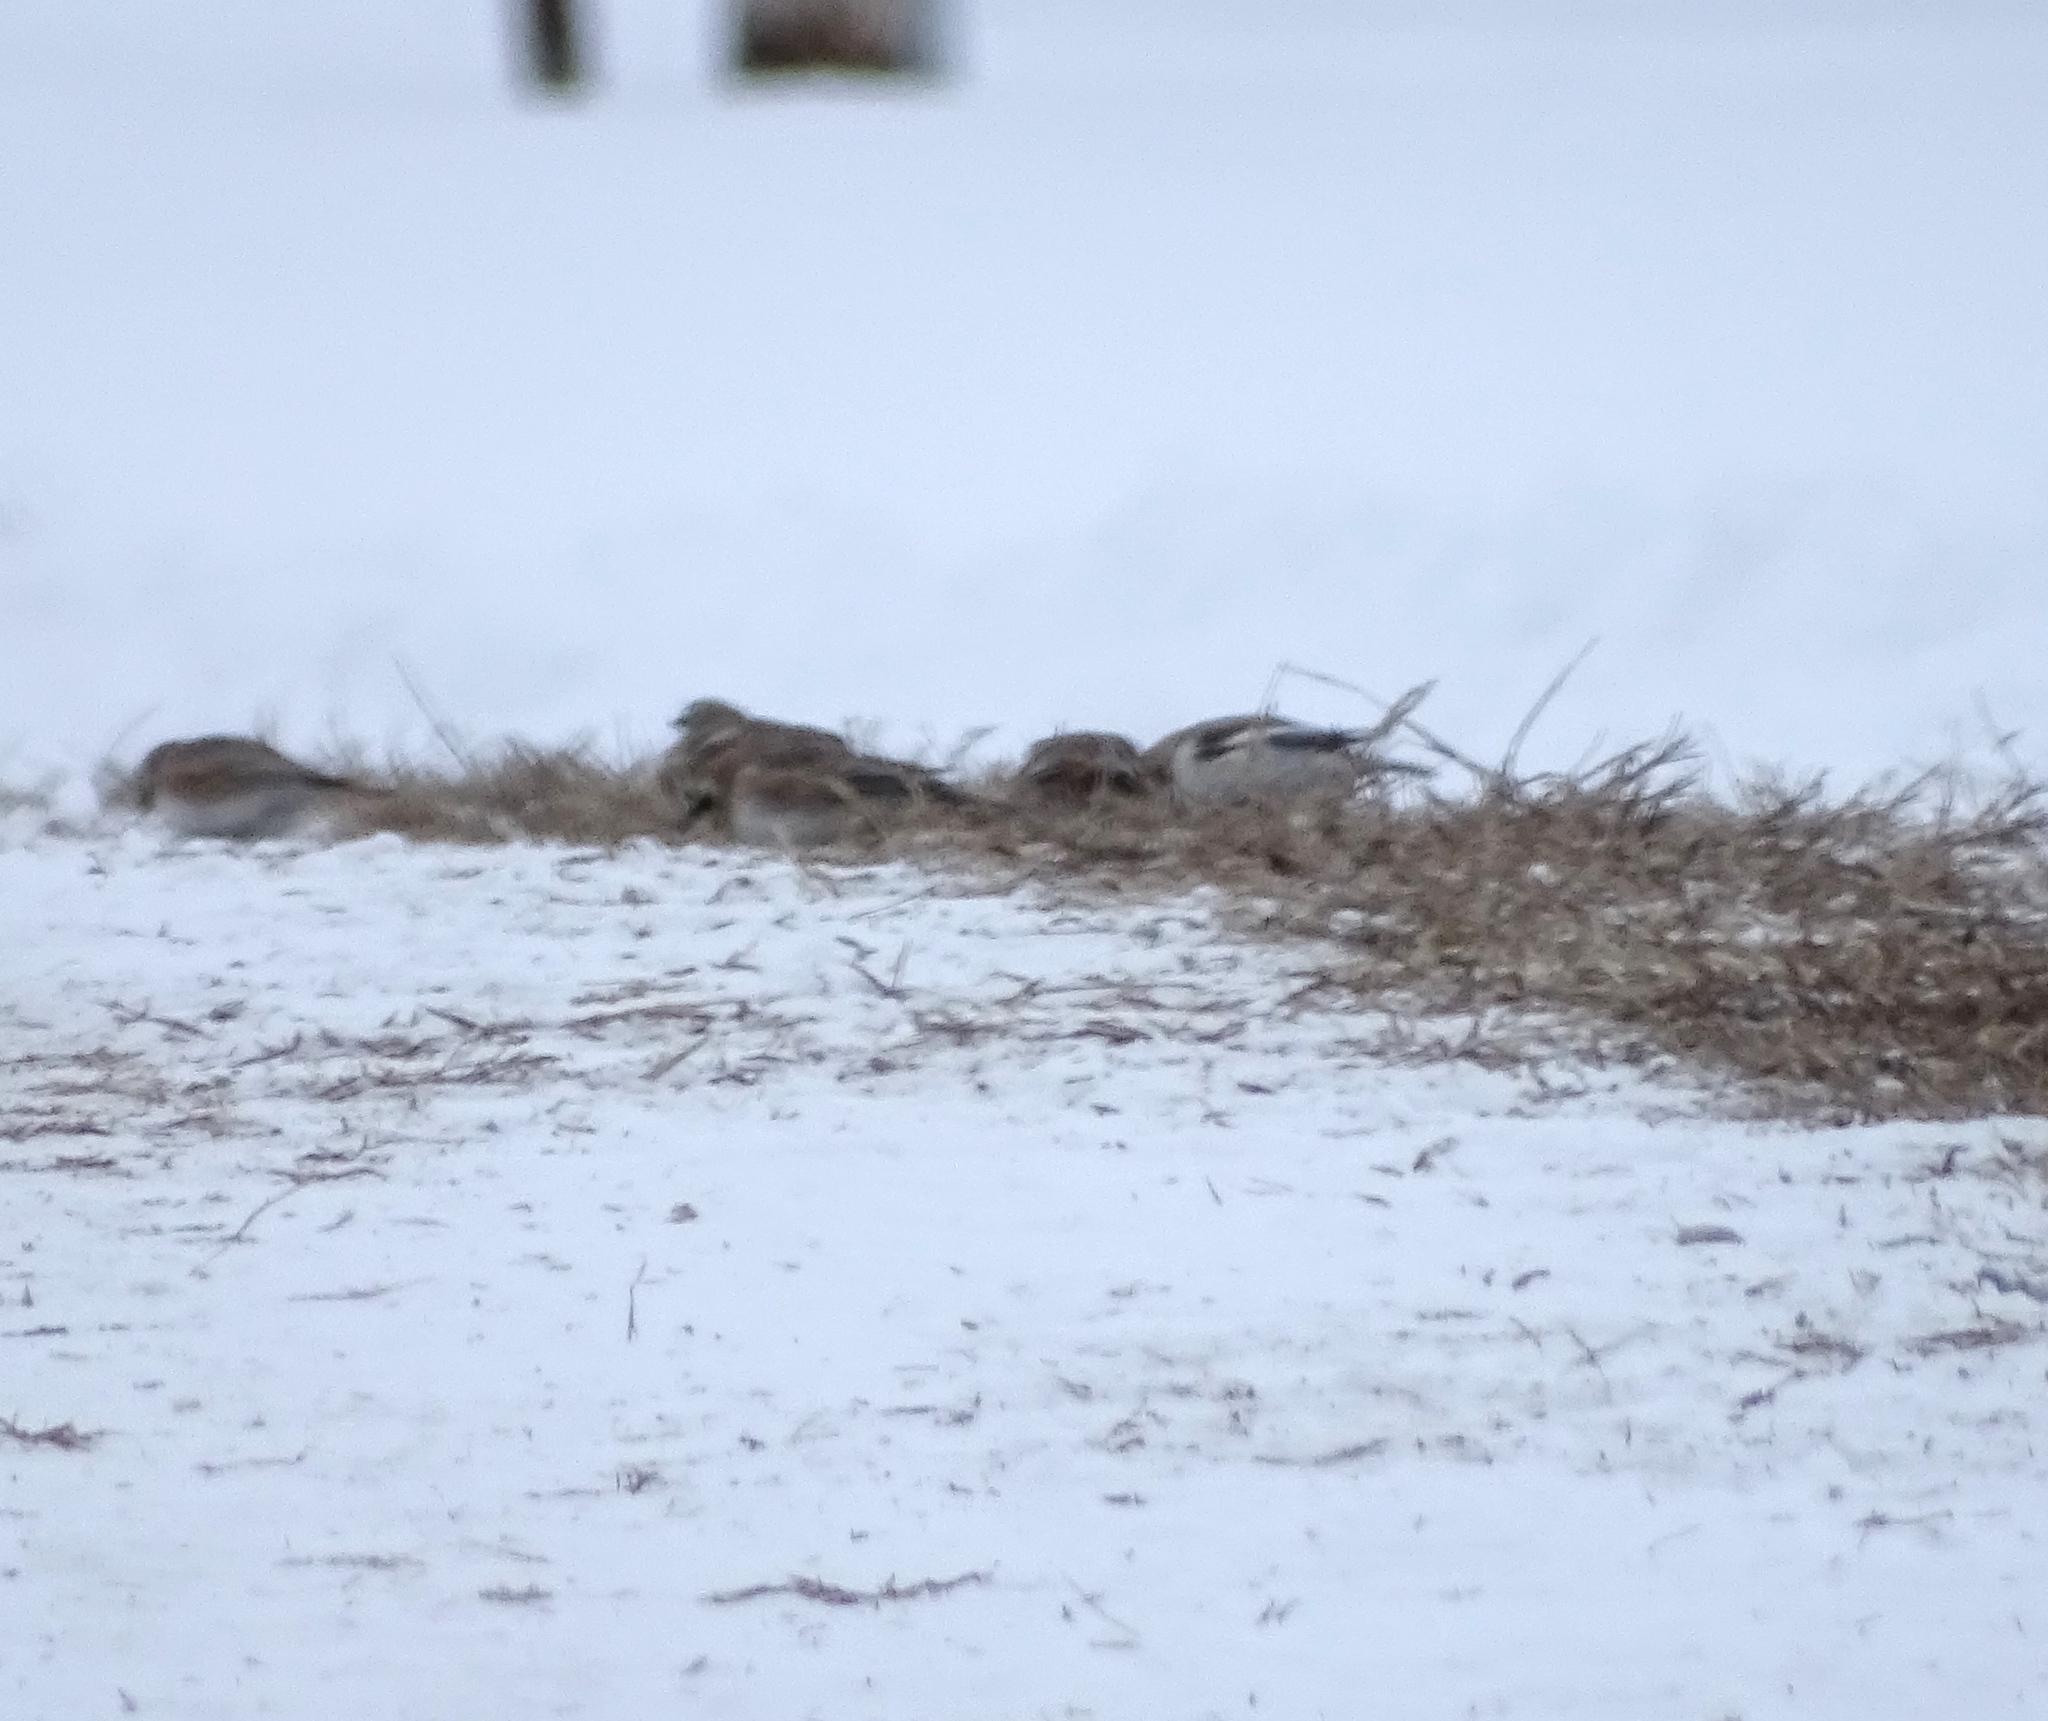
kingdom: Animalia
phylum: Chordata
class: Aves
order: Passeriformes
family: Calcariidae
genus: Plectrophenax
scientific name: Plectrophenax nivalis
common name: Snow bunting
